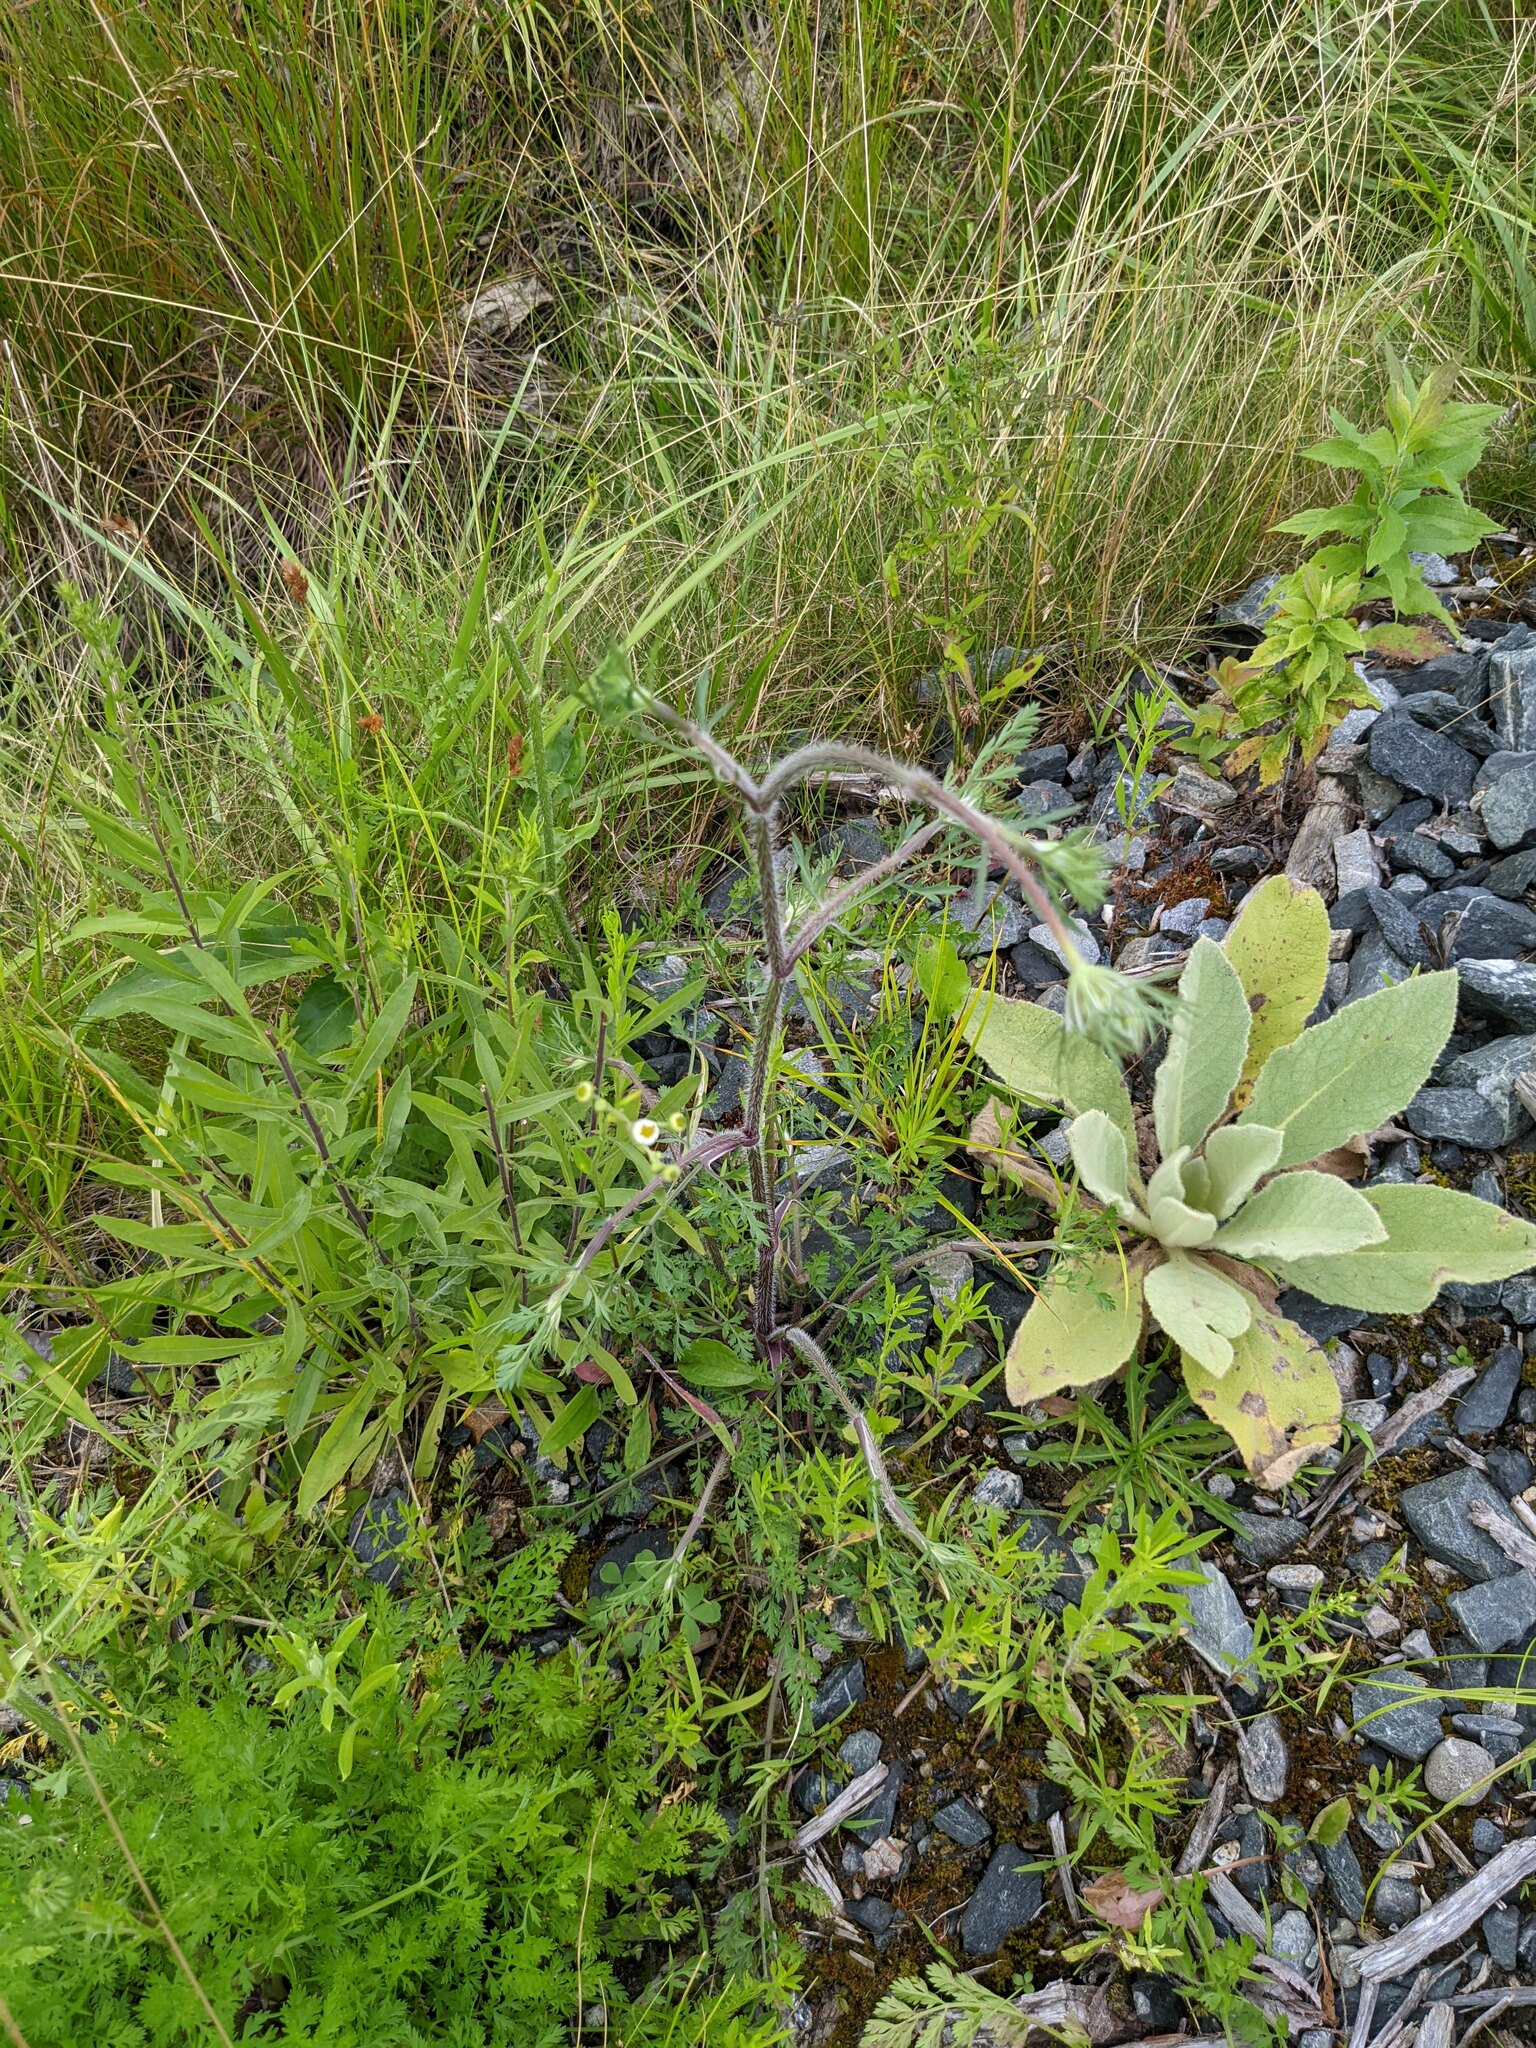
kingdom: Plantae
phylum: Tracheophyta
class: Magnoliopsida
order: Apiales
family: Apiaceae
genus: Daucus
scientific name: Daucus carota
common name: Wild carrot
